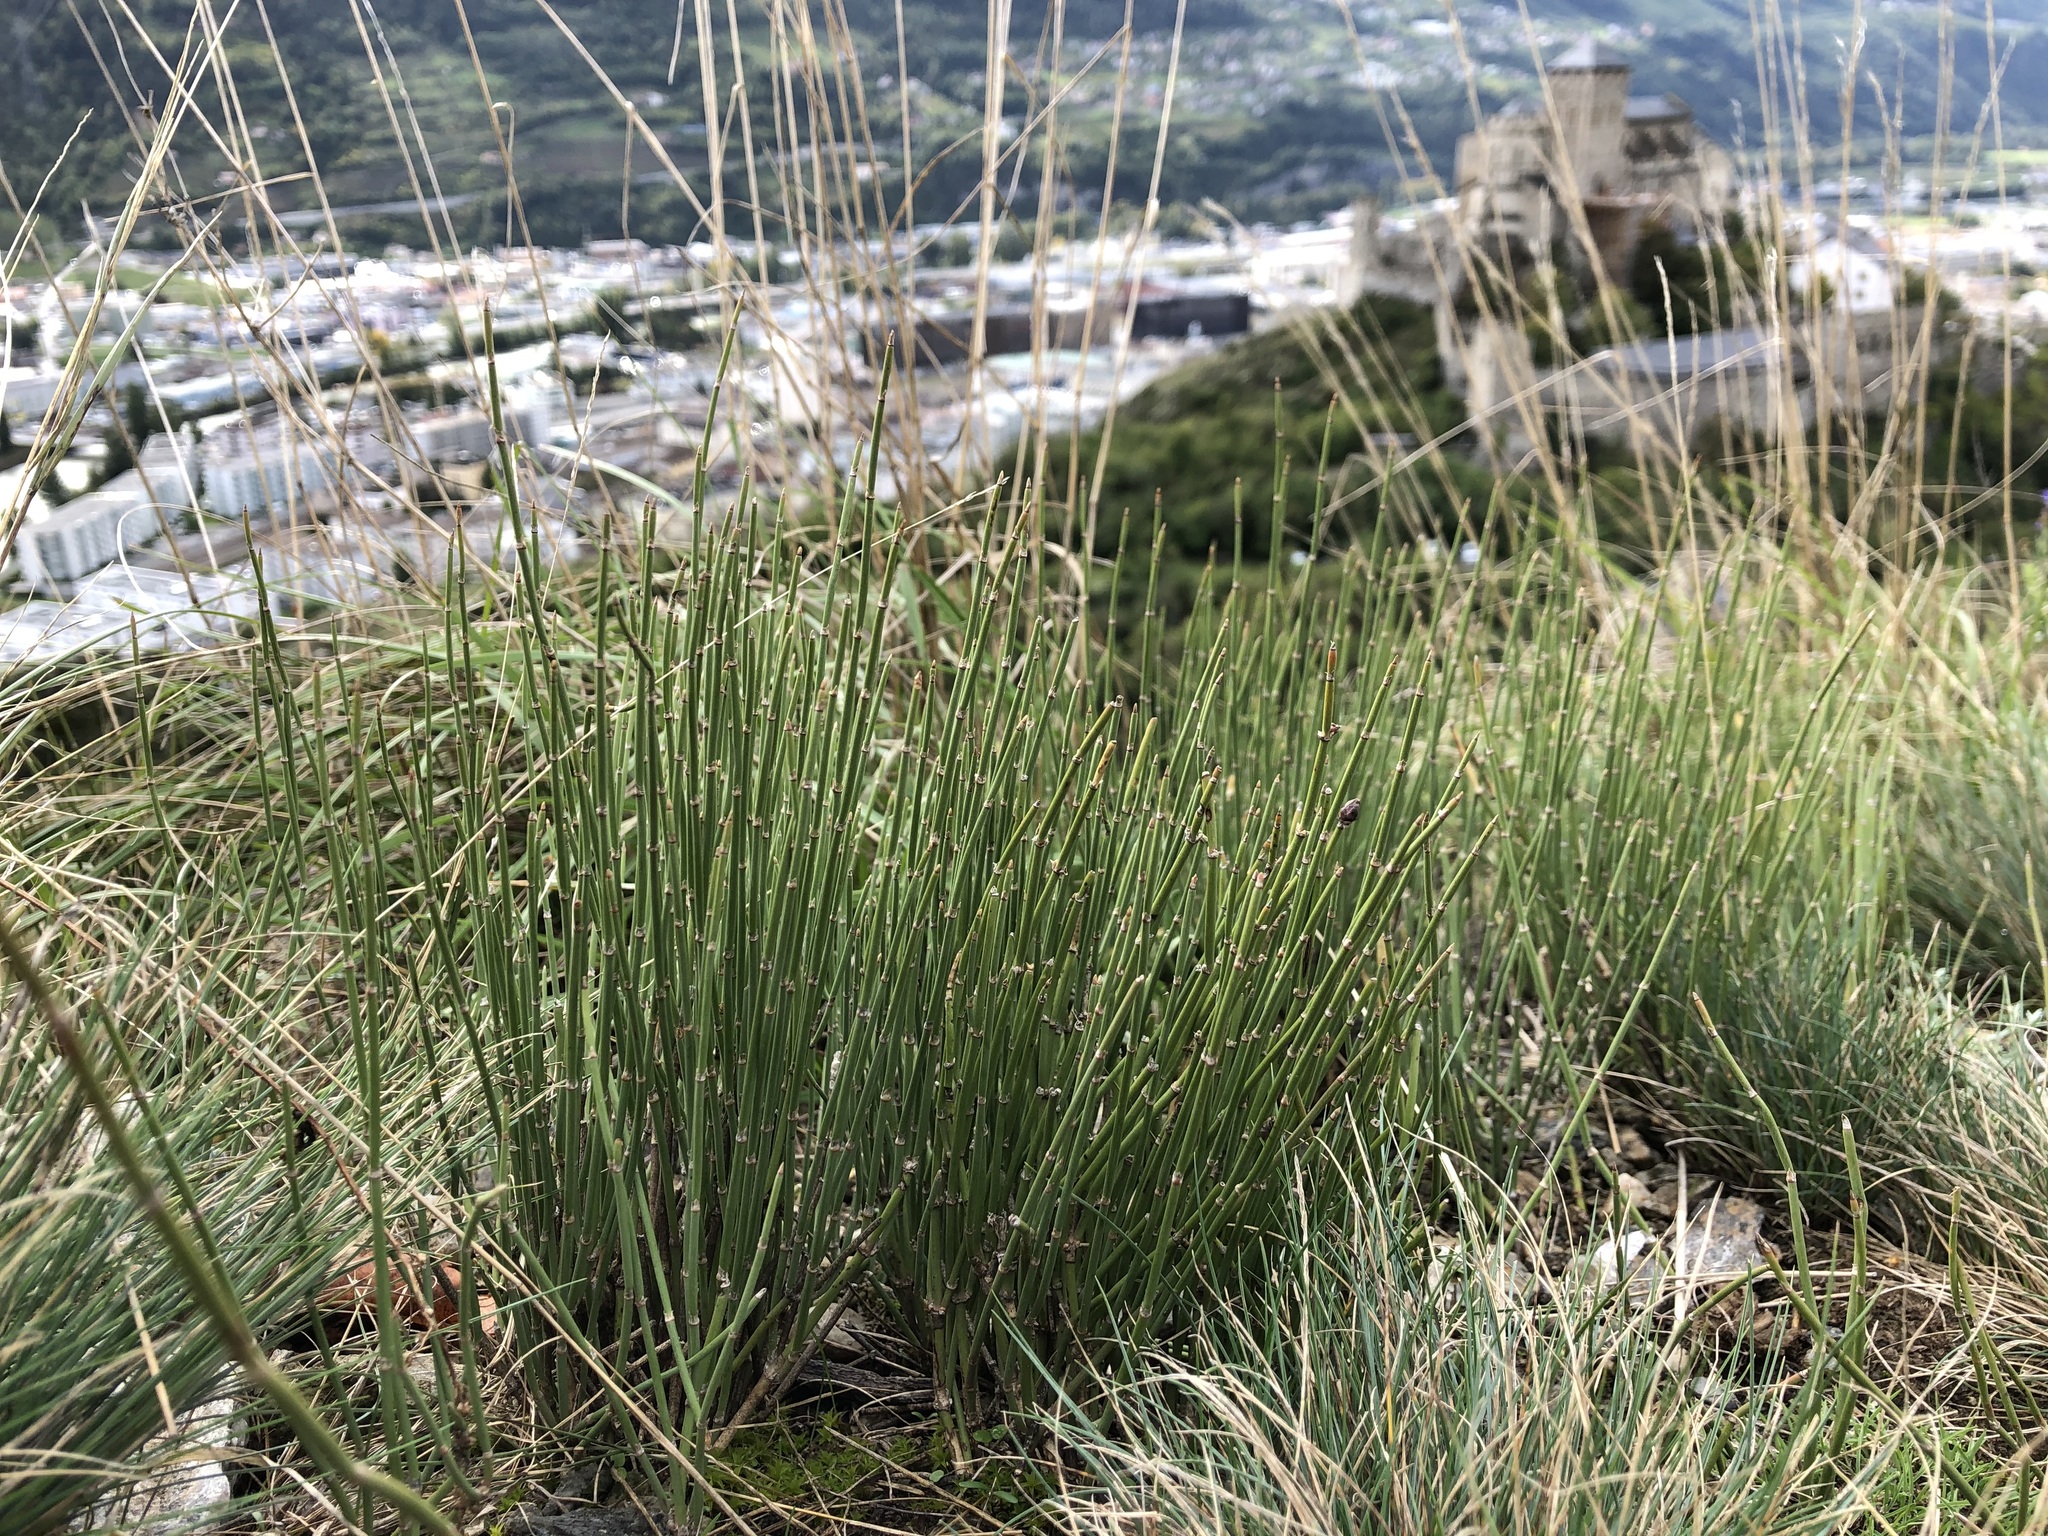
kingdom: Plantae
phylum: Tracheophyta
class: Gnetopsida
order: Ephedrales
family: Ephedraceae
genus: Ephedra
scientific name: Ephedra distachya
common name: Sea grape
